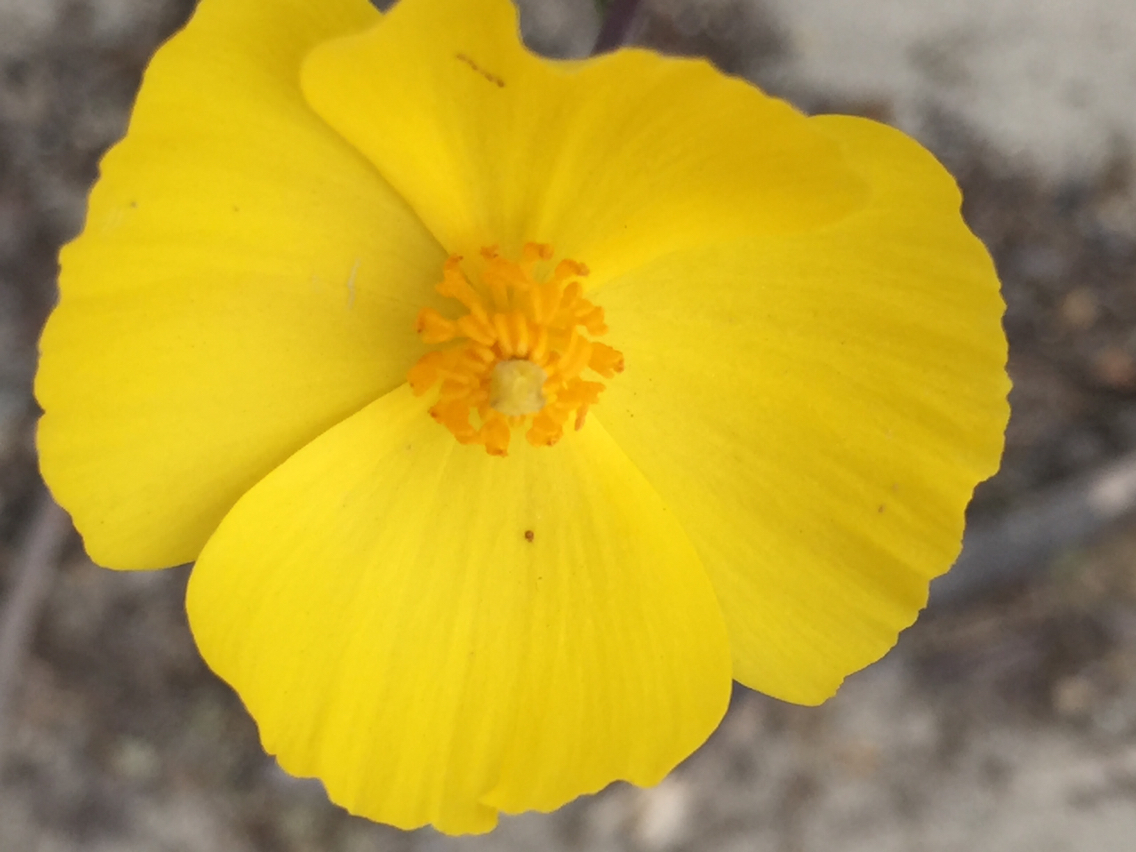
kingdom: Plantae
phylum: Tracheophyta
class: Magnoliopsida
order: Ranunculales
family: Papaveraceae
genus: Dendromecon
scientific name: Dendromecon rigida
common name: Tree poppy
